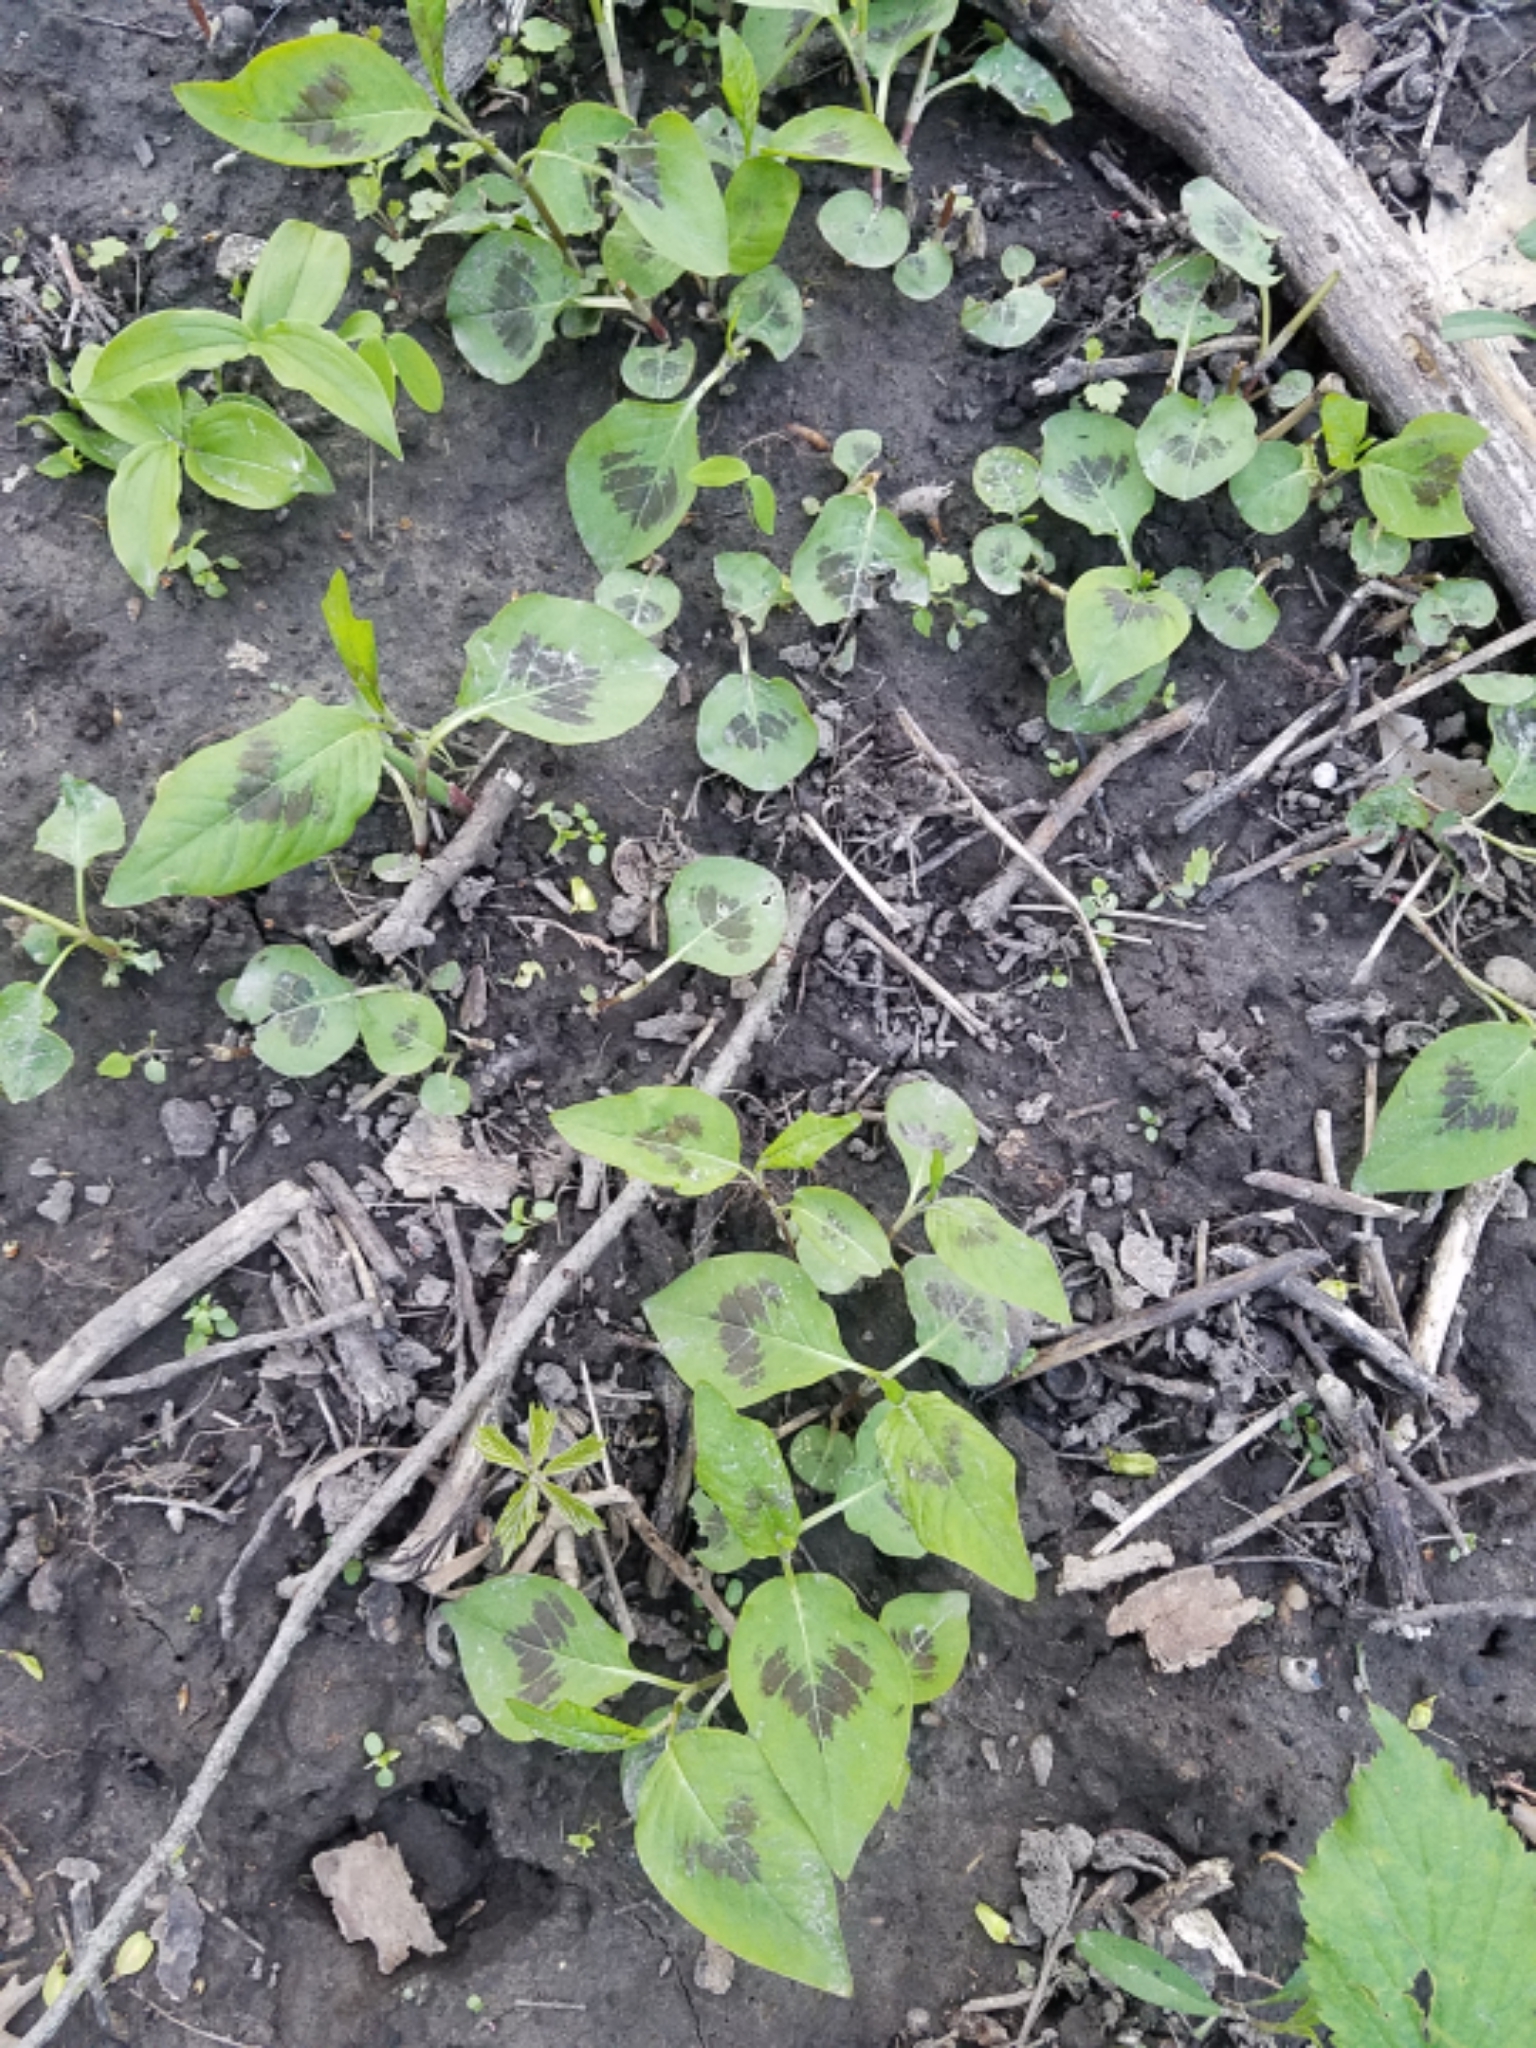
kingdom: Plantae
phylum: Tracheophyta
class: Magnoliopsida
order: Caryophyllales
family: Polygonaceae
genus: Persicaria
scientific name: Persicaria virginiana
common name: Jumpseed
